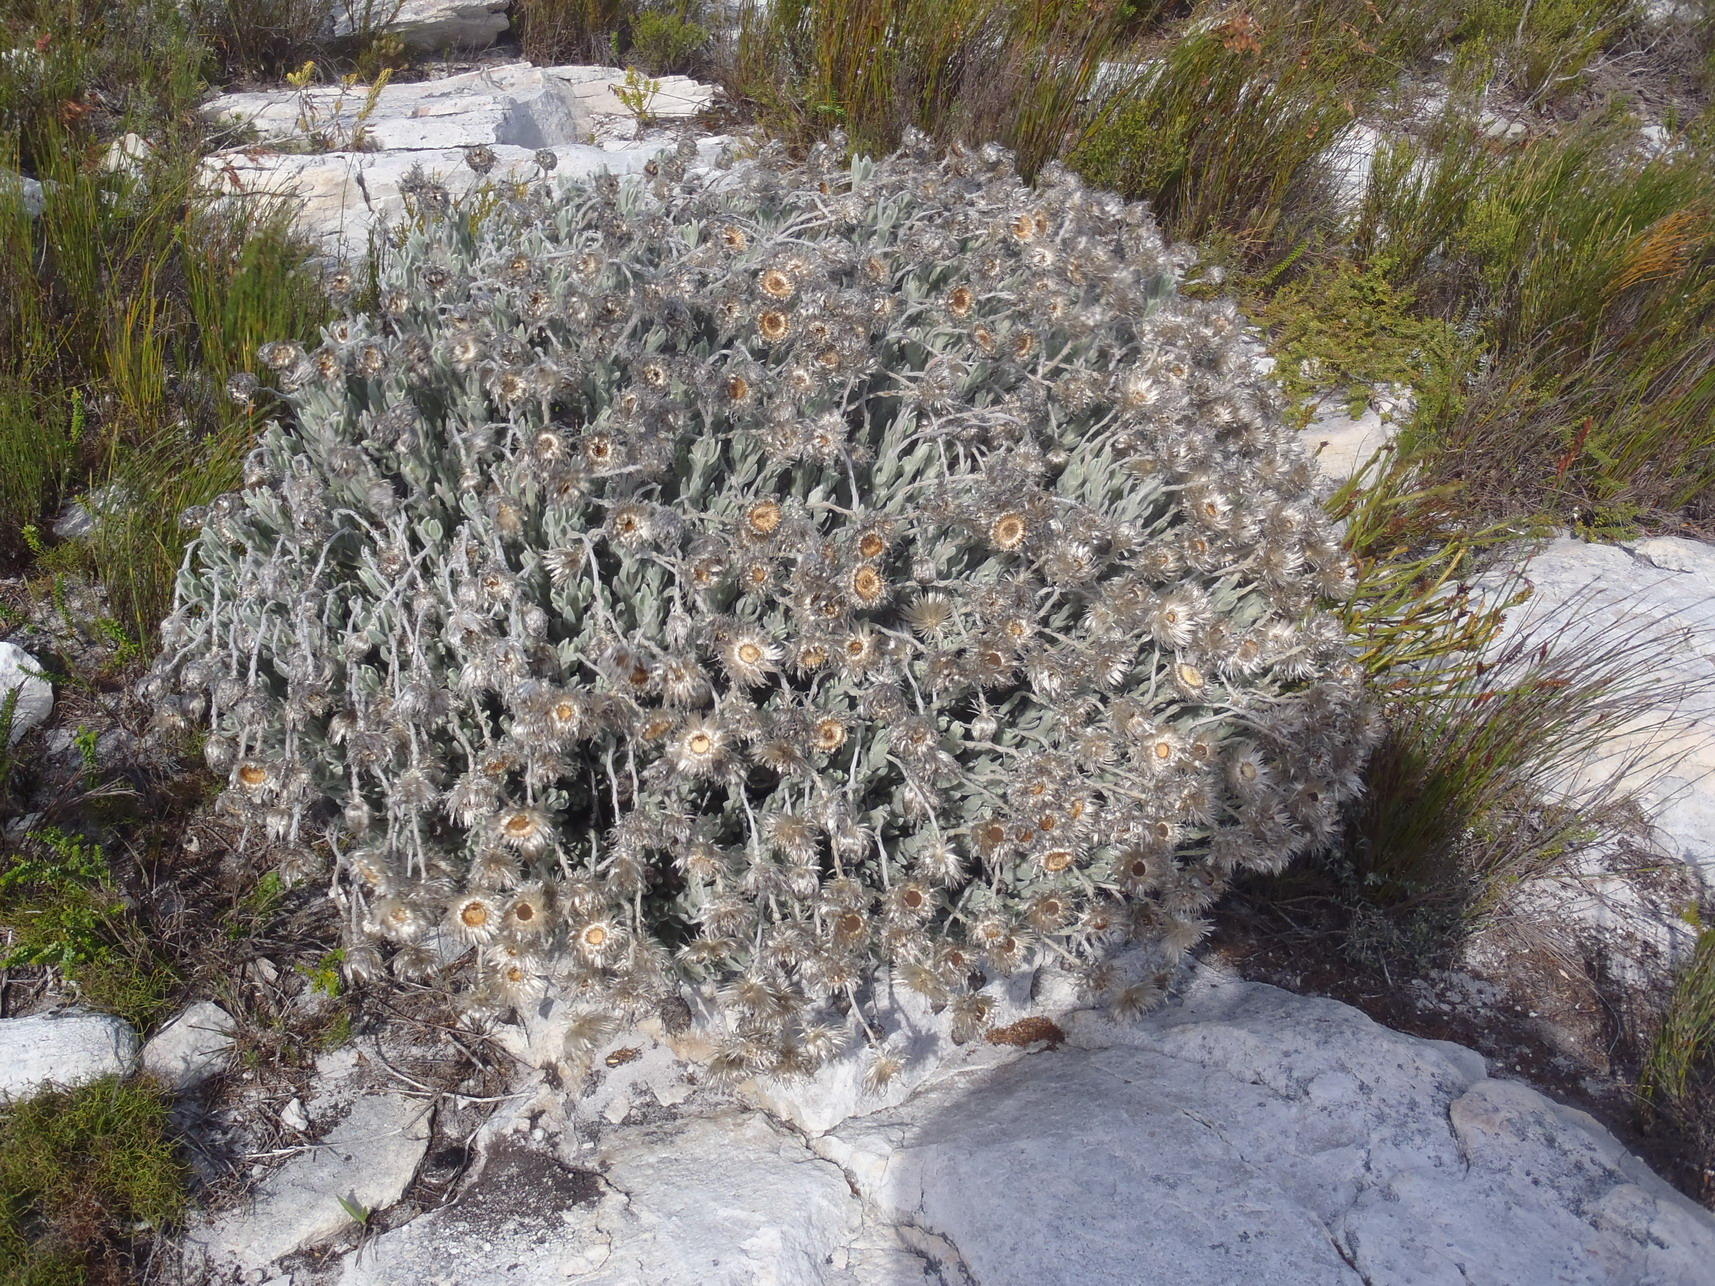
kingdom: Plantae
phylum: Tracheophyta
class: Magnoliopsida
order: Asterales
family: Asteraceae
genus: Syncarpha
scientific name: Syncarpha vestita
